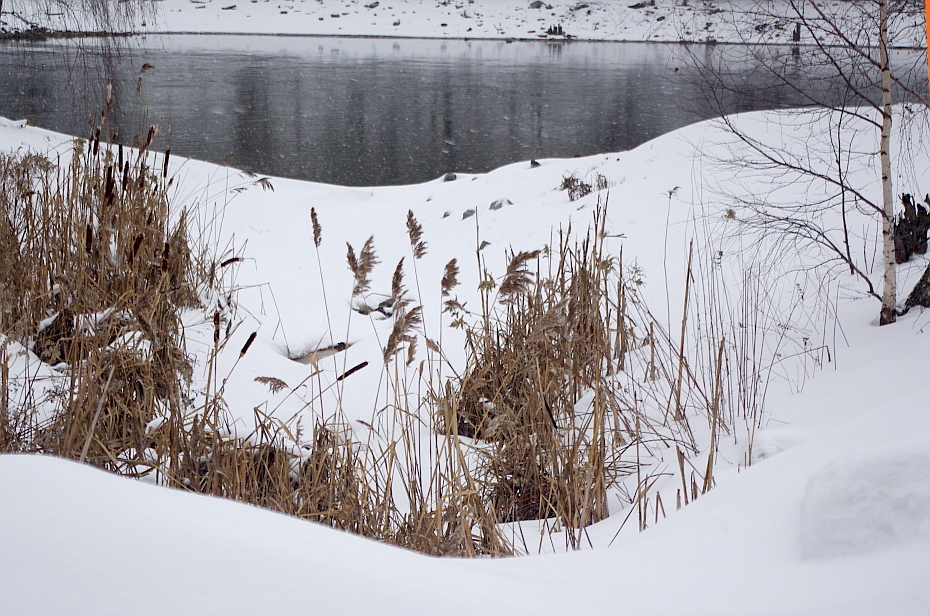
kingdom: Plantae
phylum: Tracheophyta
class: Liliopsida
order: Poales
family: Poaceae
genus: Phragmites
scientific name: Phragmites australis
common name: Common reed
